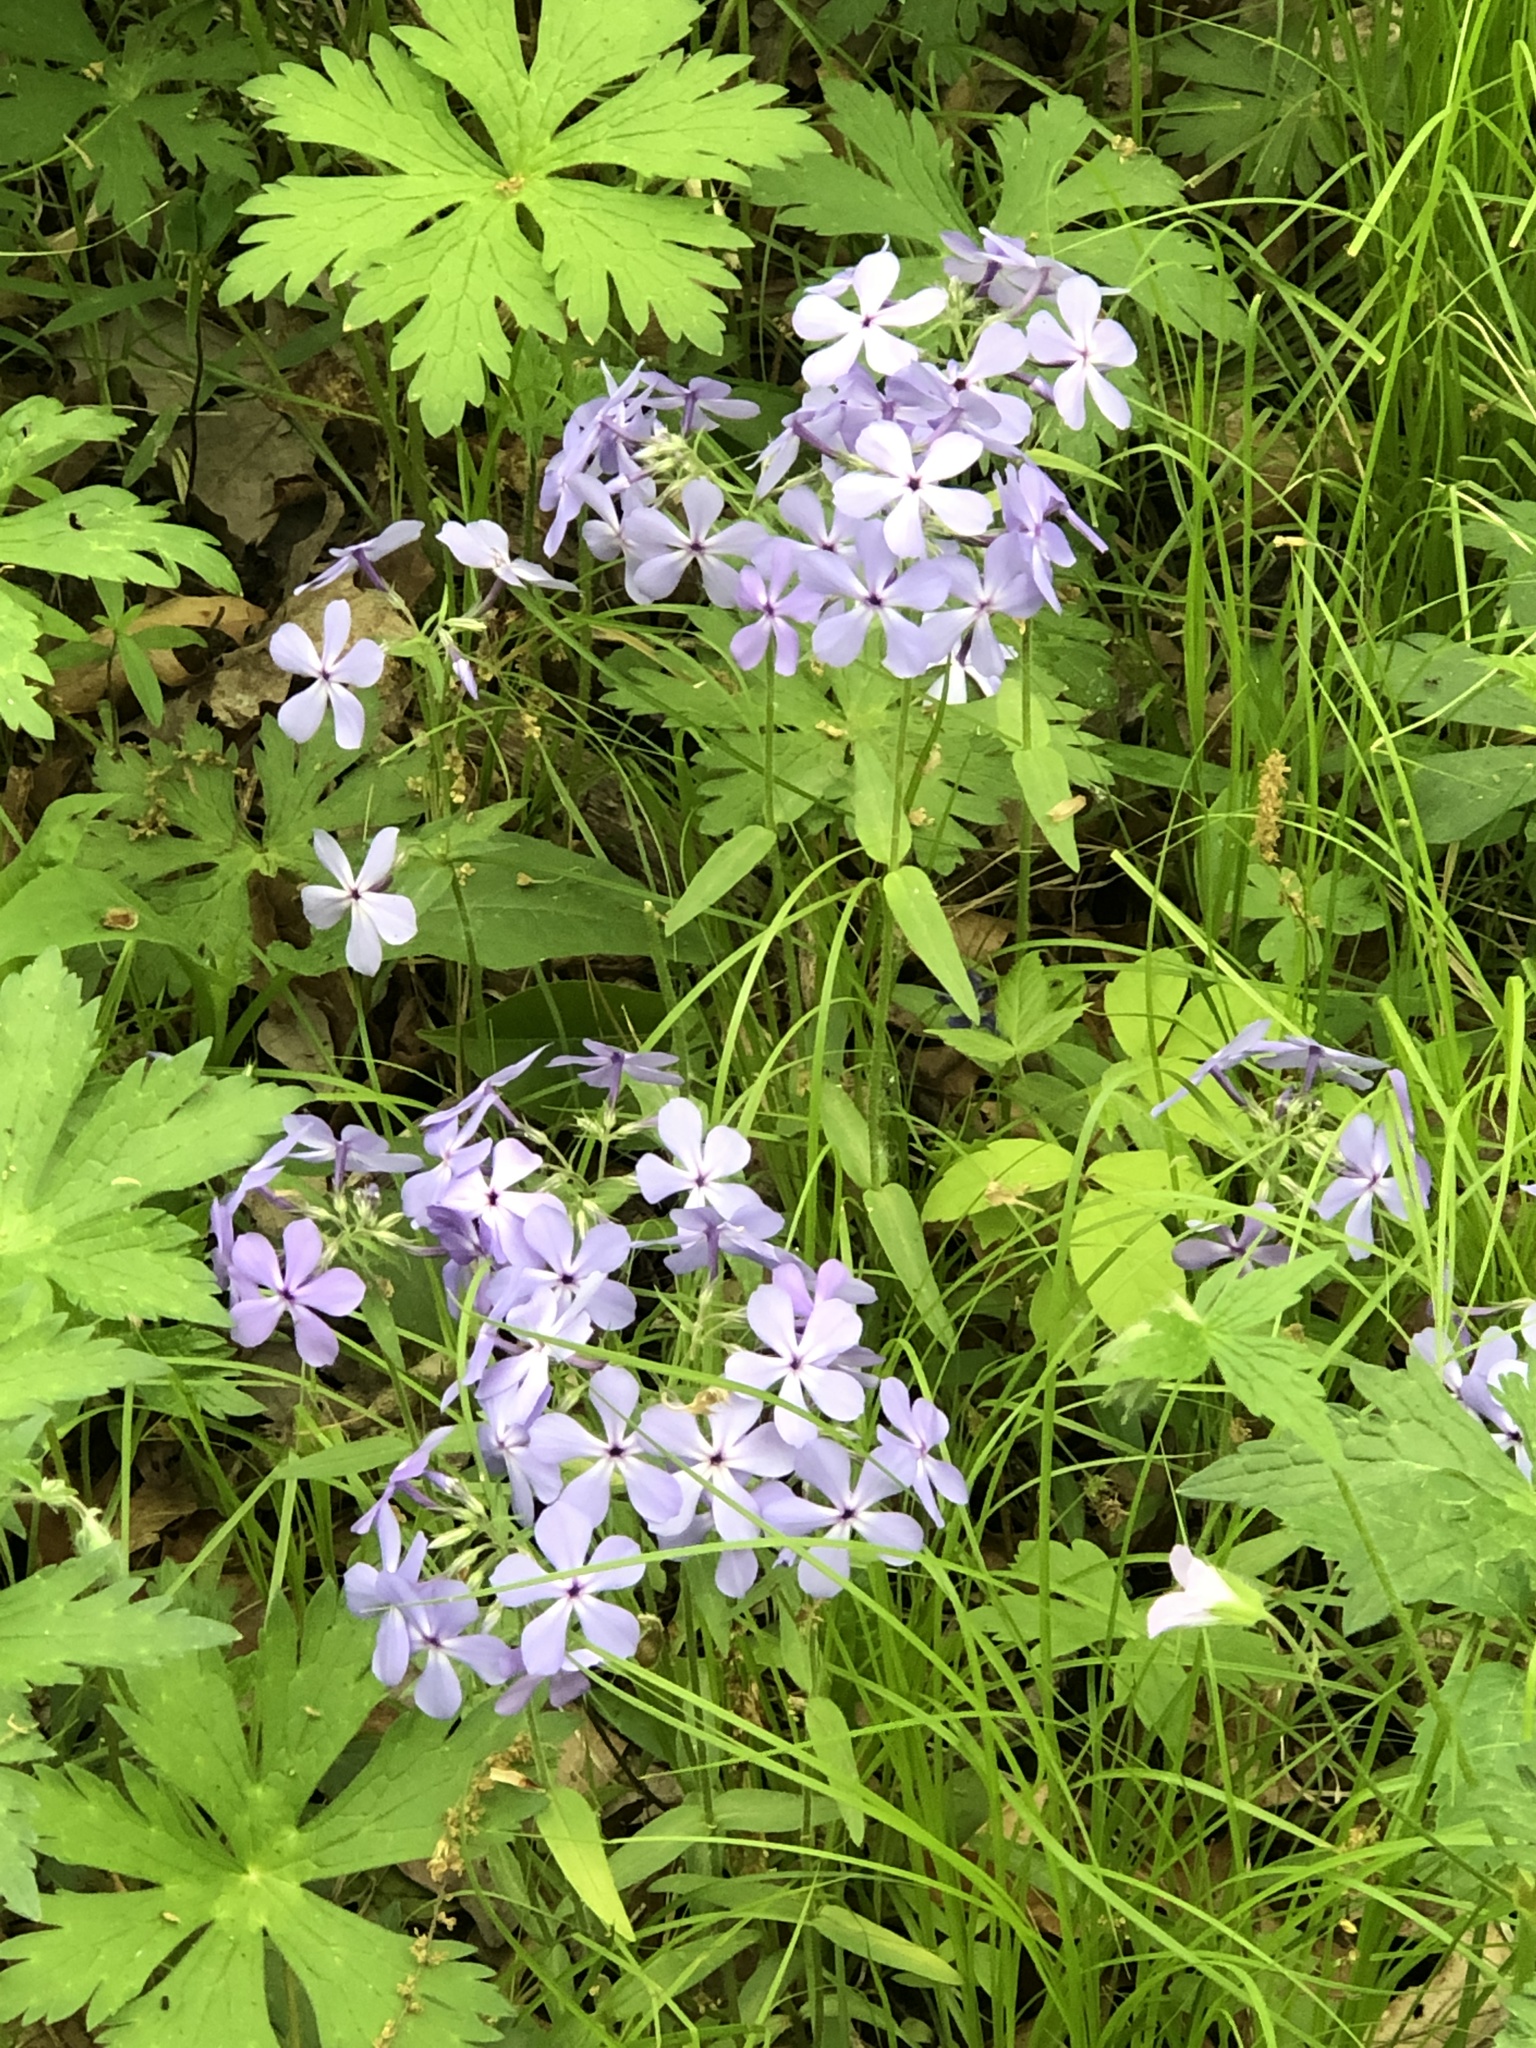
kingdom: Plantae
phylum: Tracheophyta
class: Magnoliopsida
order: Ericales
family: Polemoniaceae
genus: Phlox
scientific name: Phlox divaricata
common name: Blue phlox
